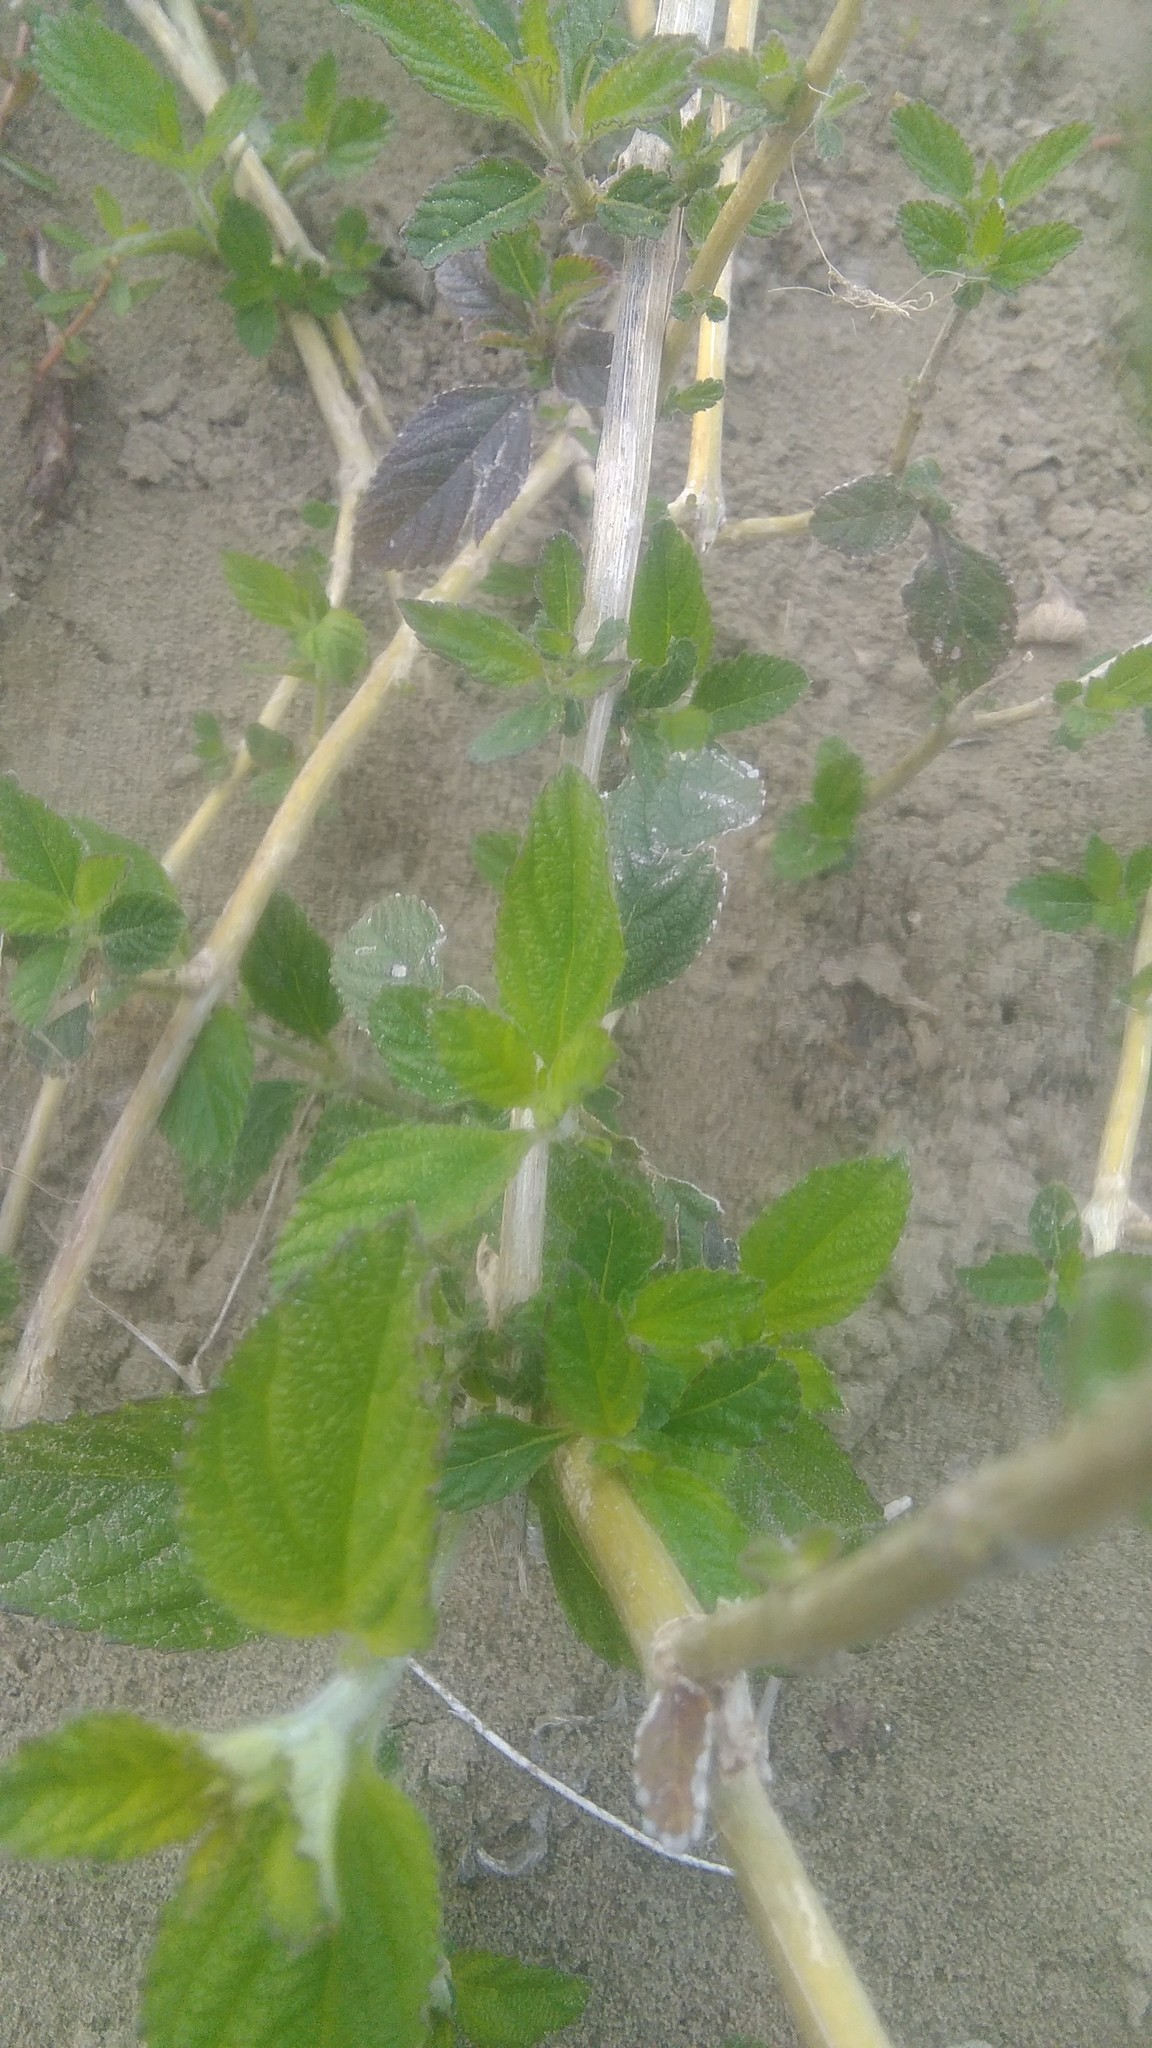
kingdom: Plantae
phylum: Tracheophyta
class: Magnoliopsida
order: Lamiales
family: Verbenaceae
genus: Lippia
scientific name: Lippia alba
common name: Bushy matgrass
